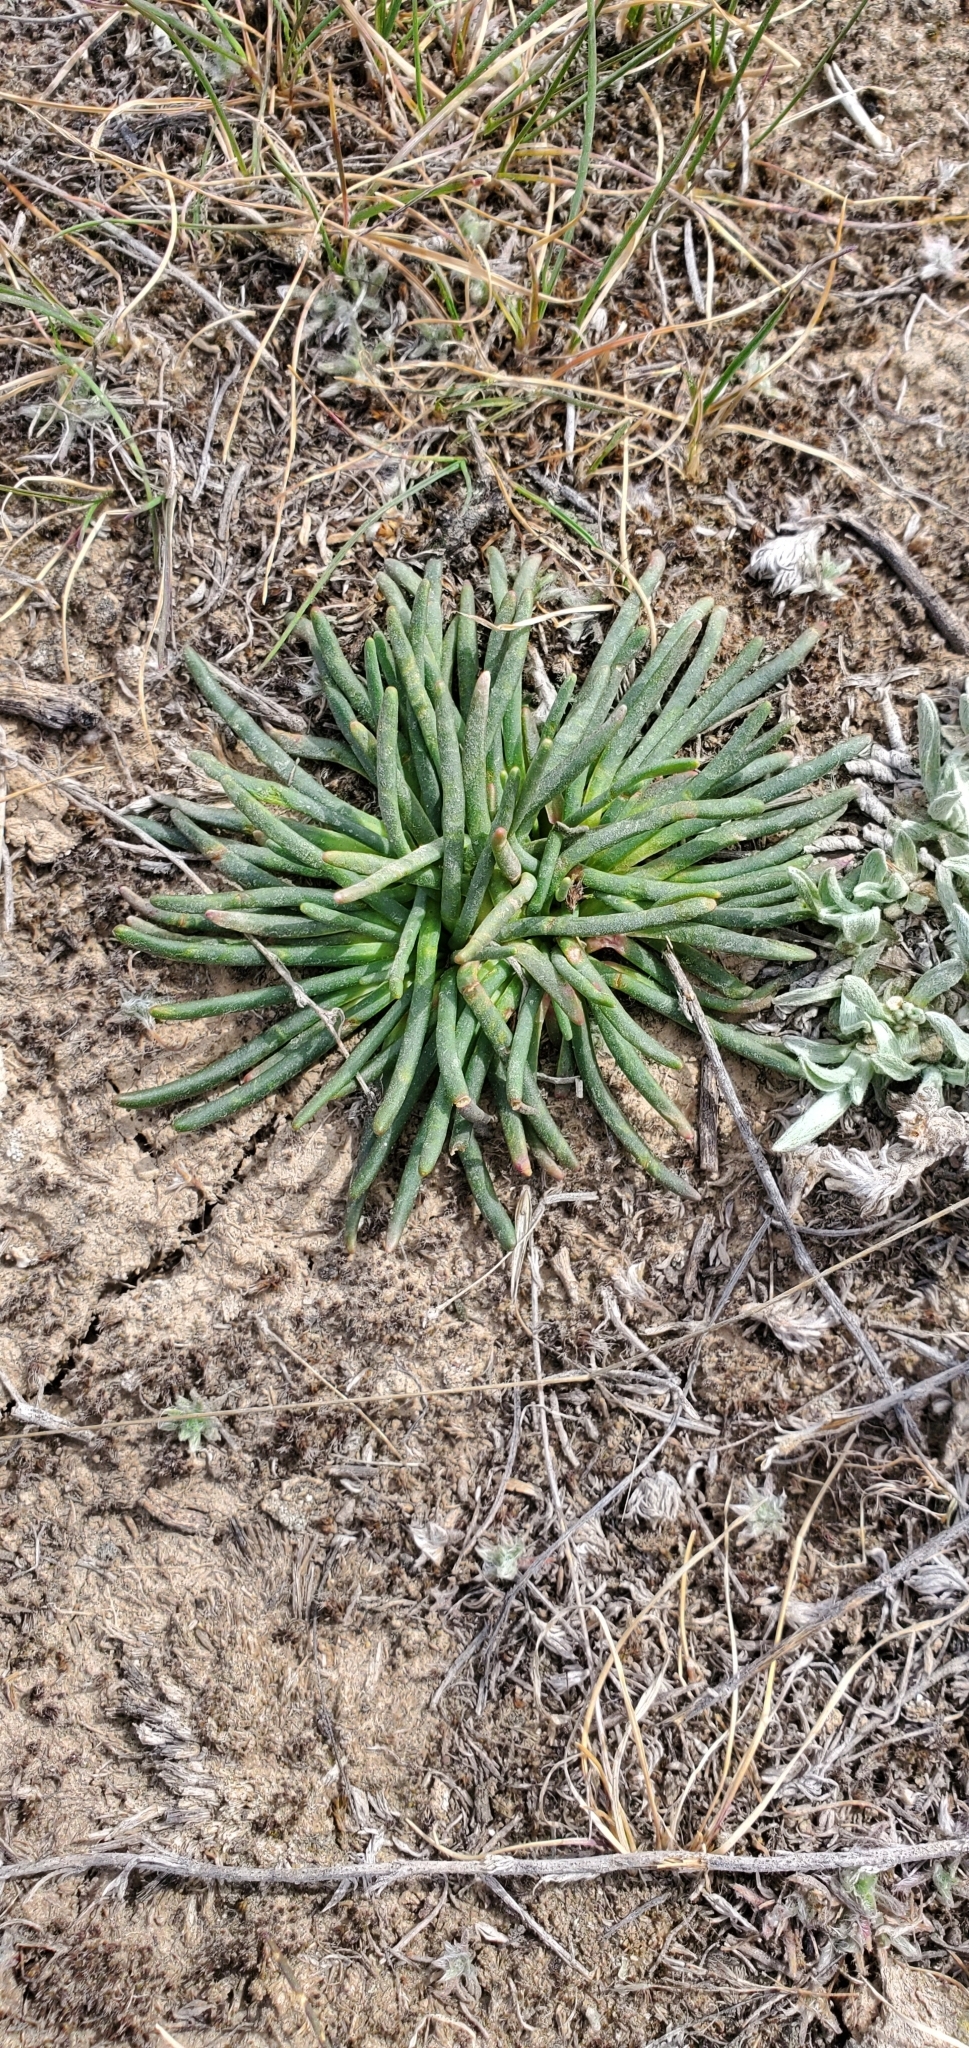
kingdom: Plantae
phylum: Tracheophyta
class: Magnoliopsida
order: Caryophyllales
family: Montiaceae
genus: Lewisia
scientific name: Lewisia rediviva
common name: Bitter-root
